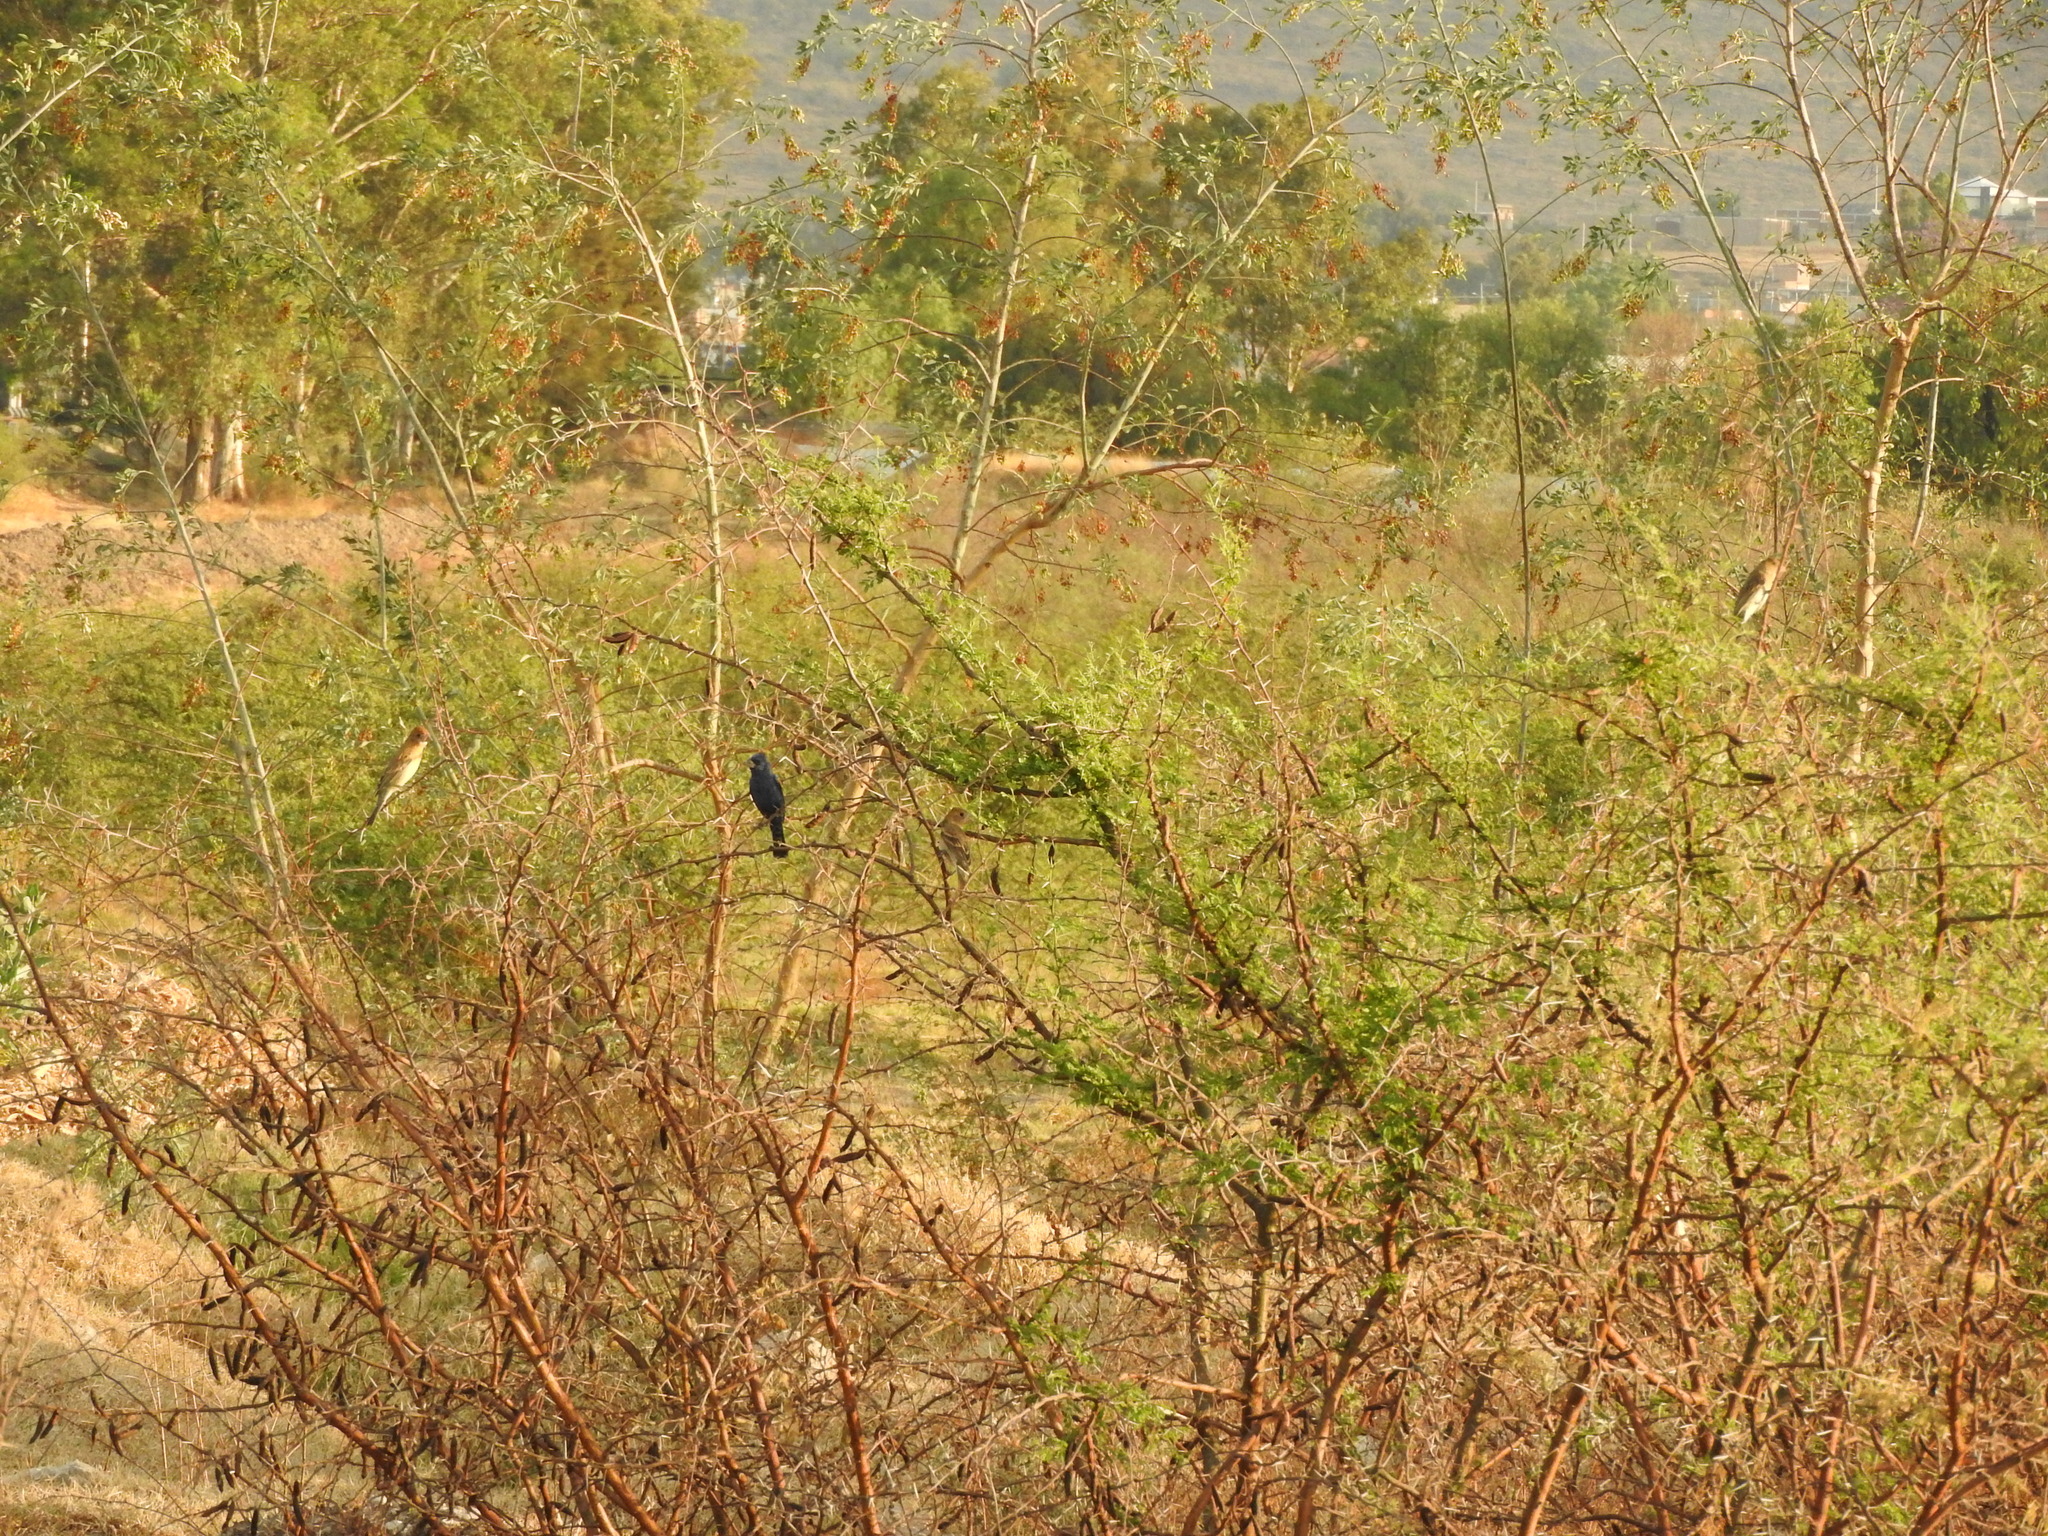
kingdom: Animalia
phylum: Chordata
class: Aves
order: Passeriformes
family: Cardinalidae
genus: Passerina
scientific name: Passerina caerulea
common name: Blue grosbeak
